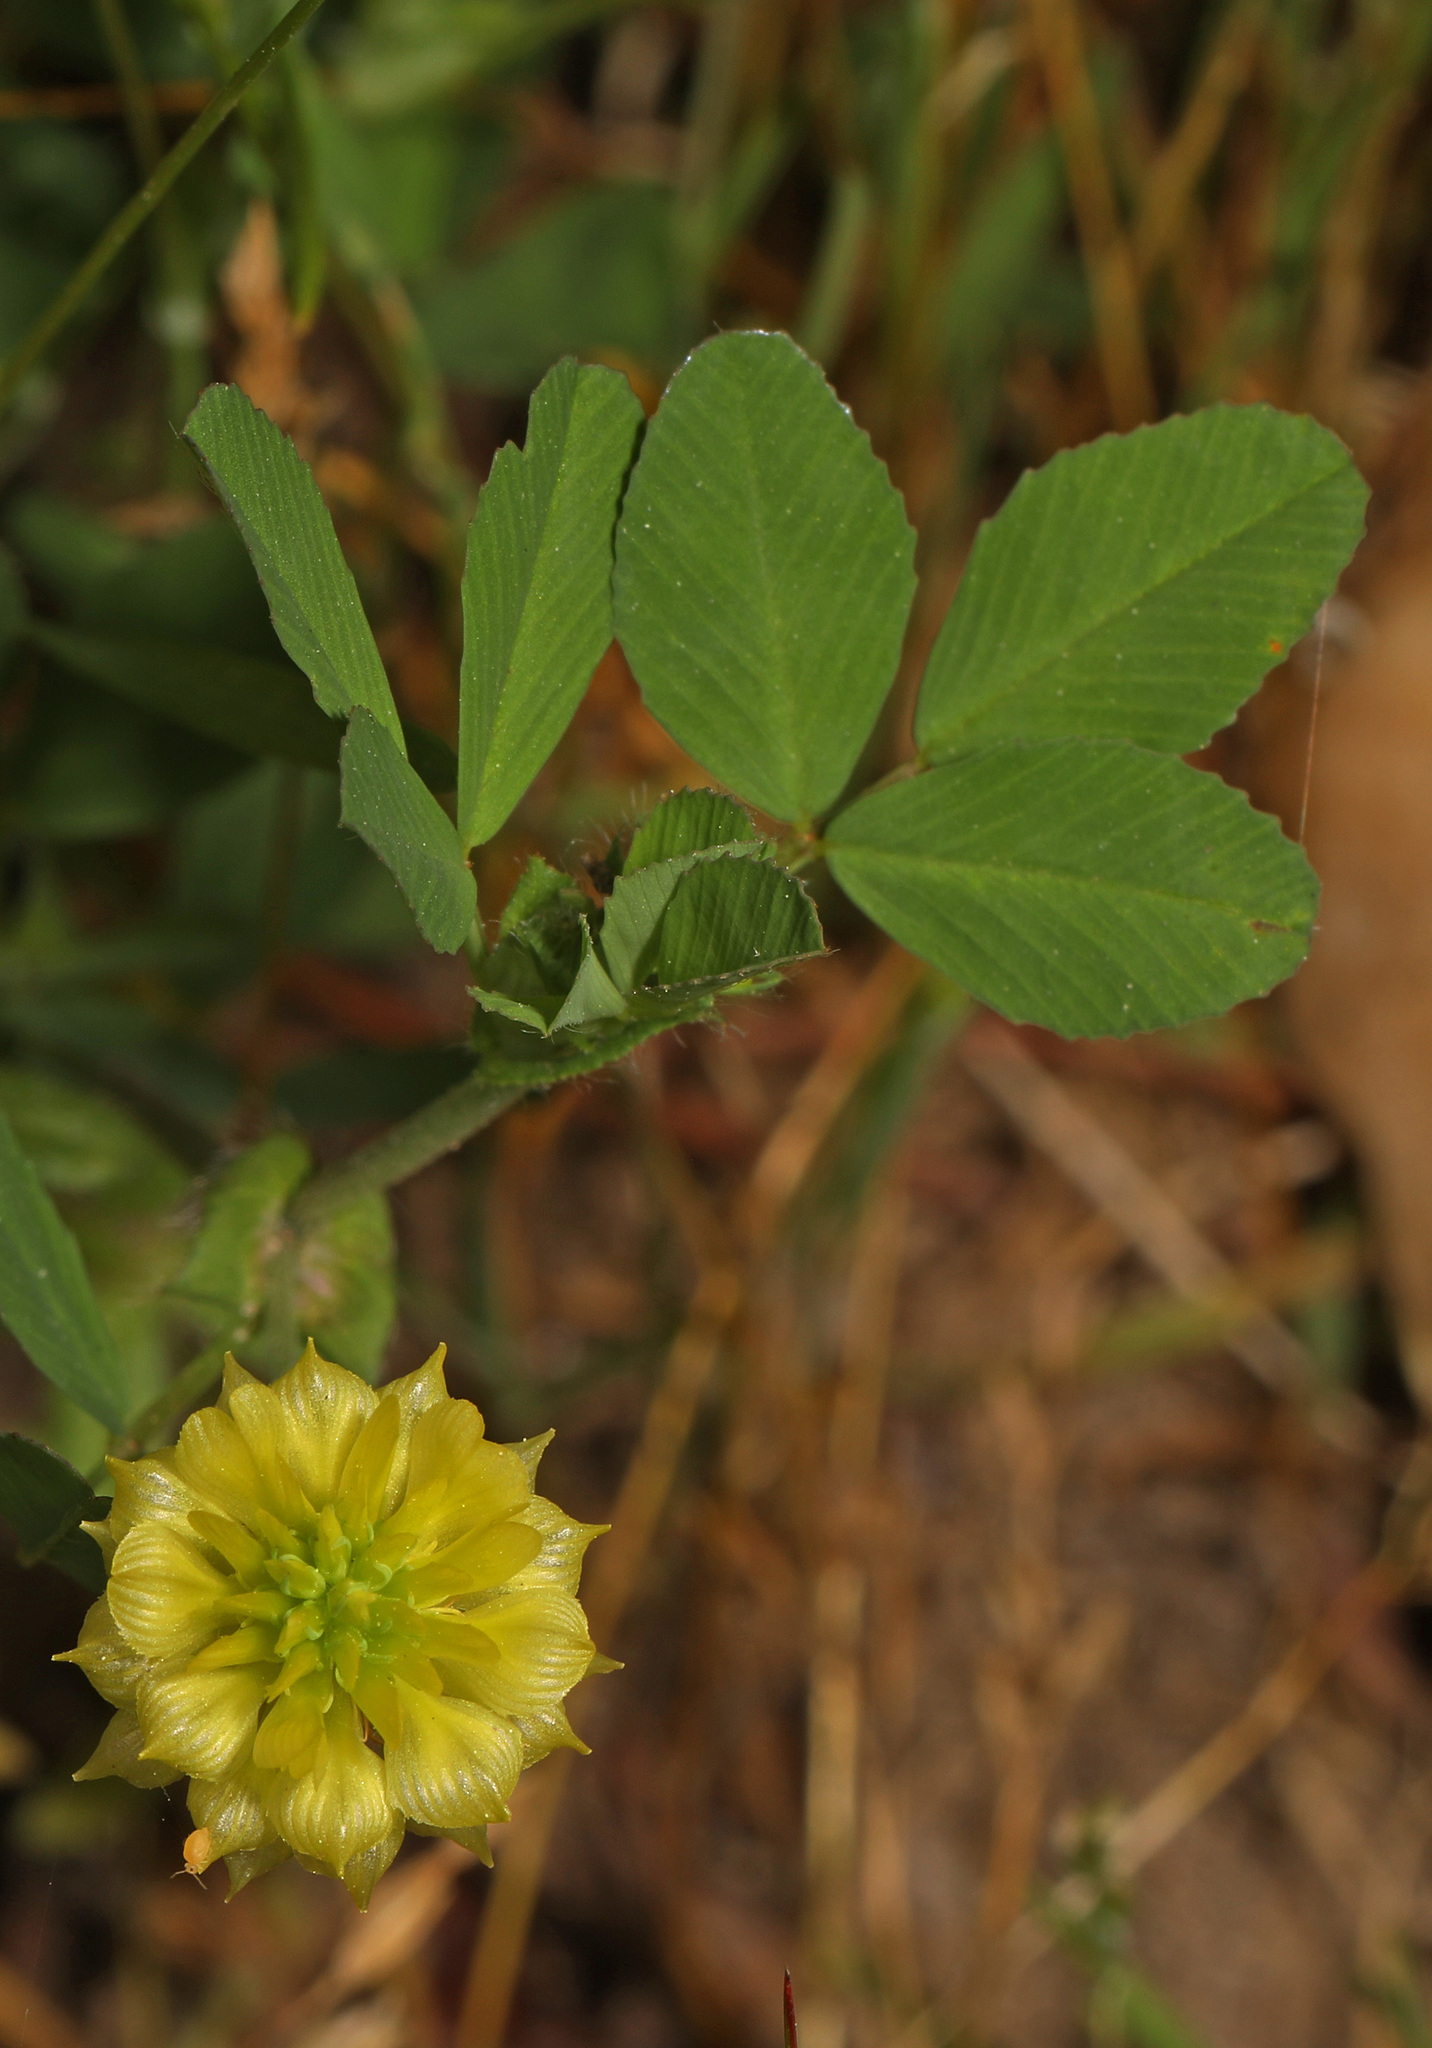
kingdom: Plantae
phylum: Tracheophyta
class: Magnoliopsida
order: Fabales
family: Fabaceae
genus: Trifolium
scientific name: Trifolium campestre
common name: Field clover
